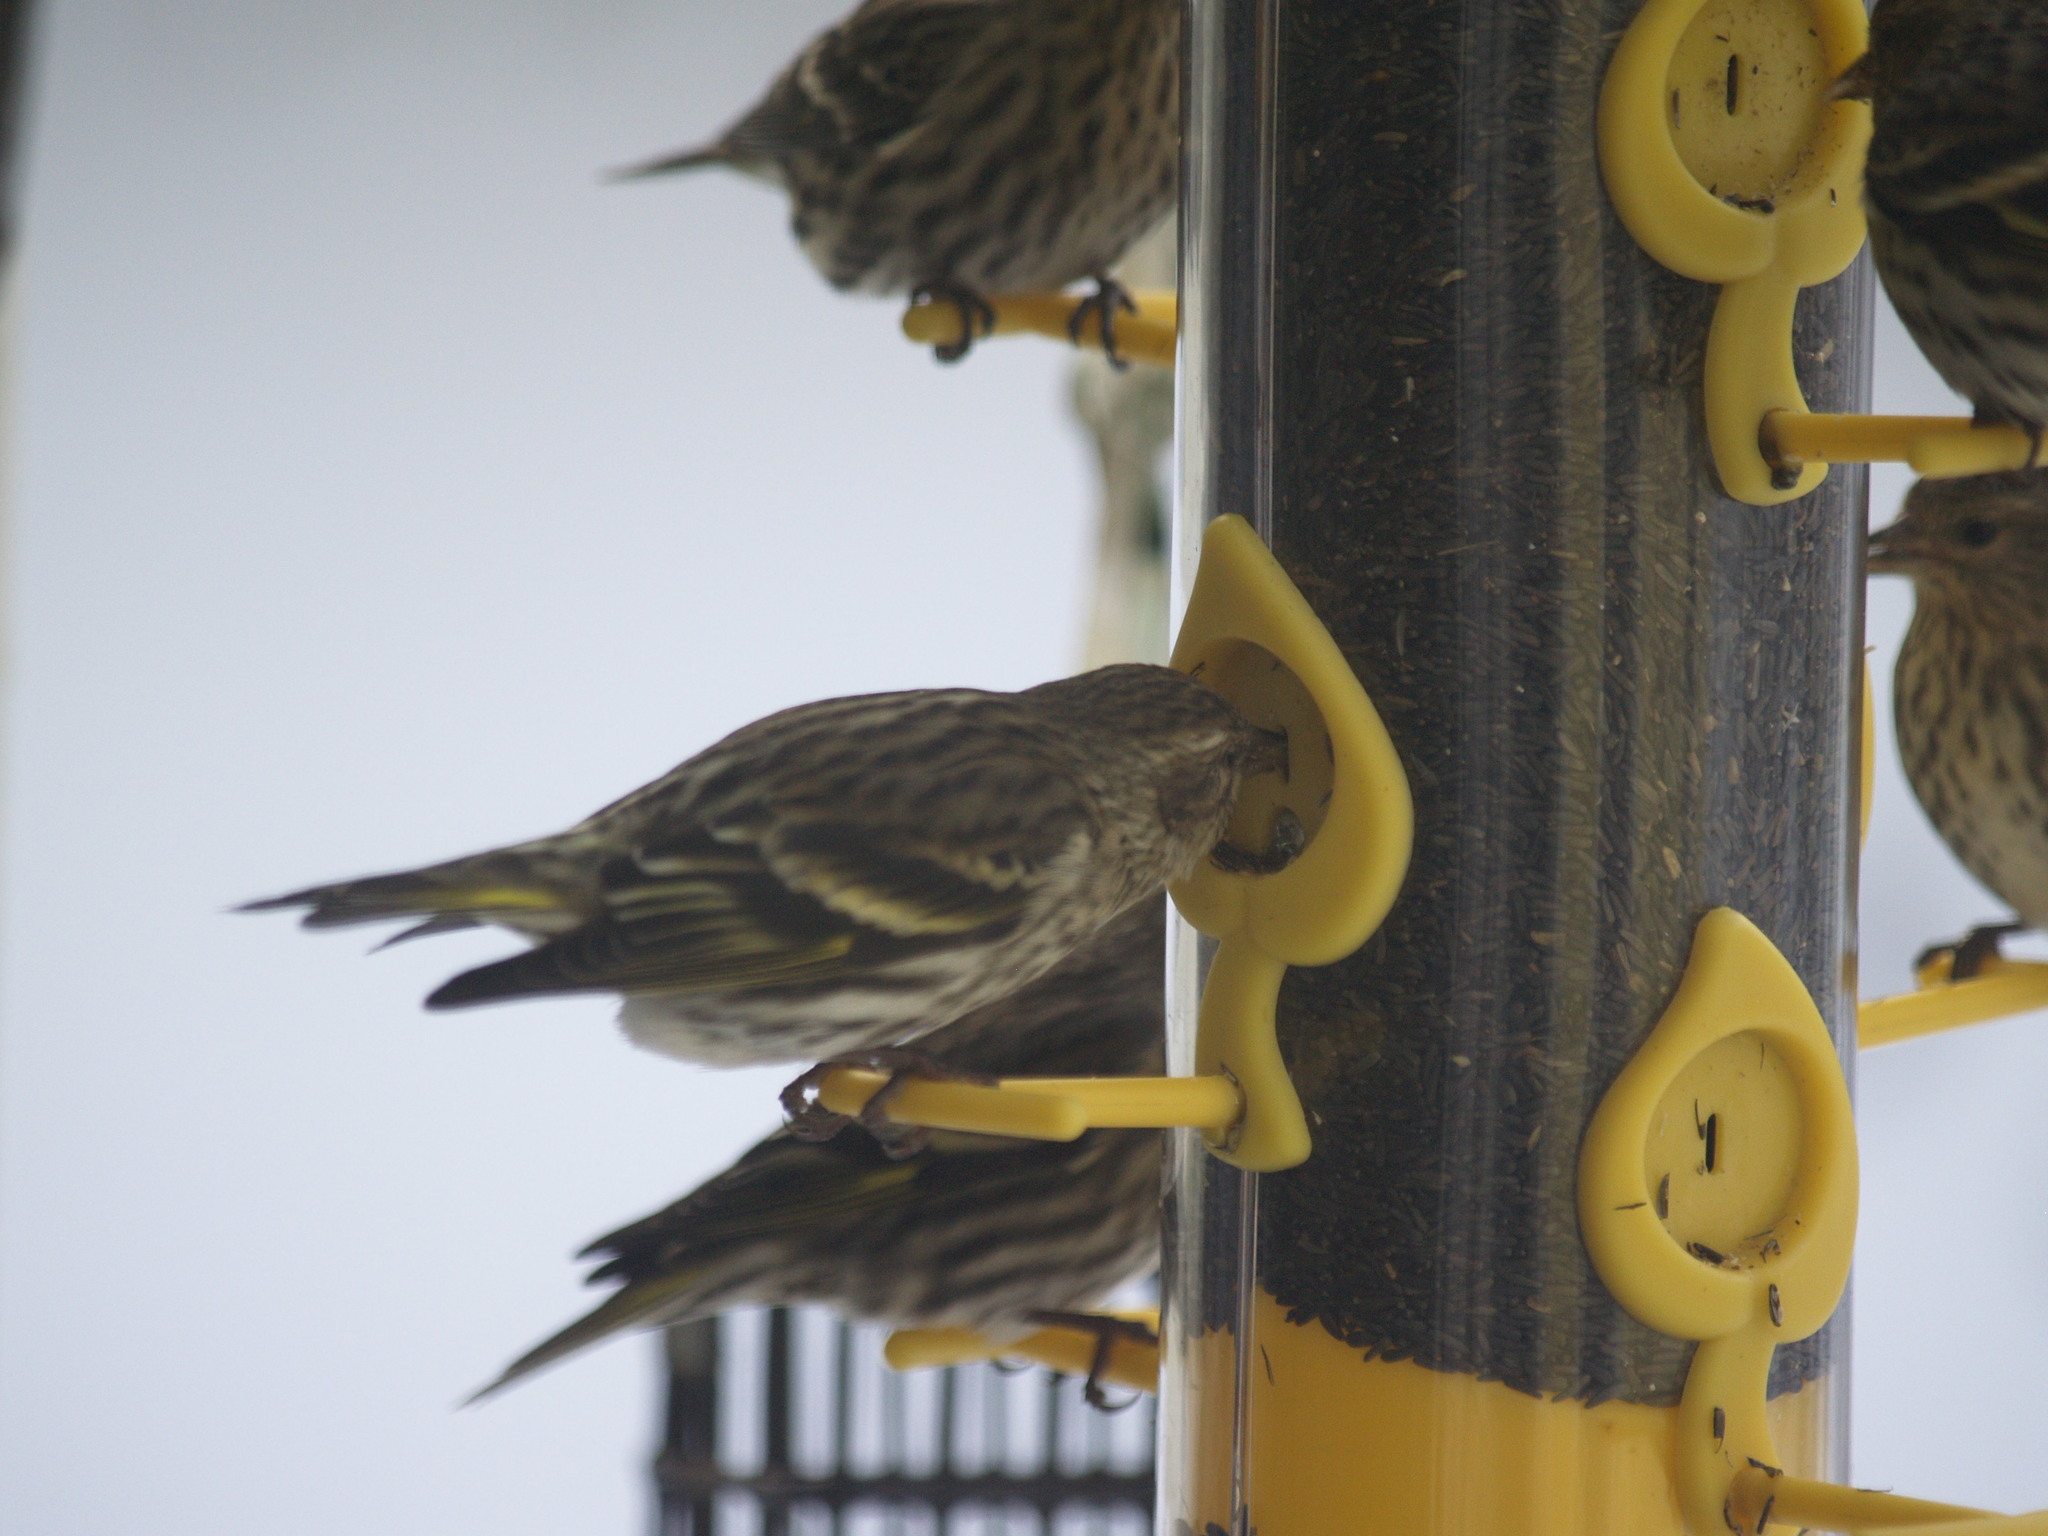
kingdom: Animalia
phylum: Chordata
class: Aves
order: Passeriformes
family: Fringillidae
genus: Spinus
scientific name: Spinus pinus
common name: Pine siskin
